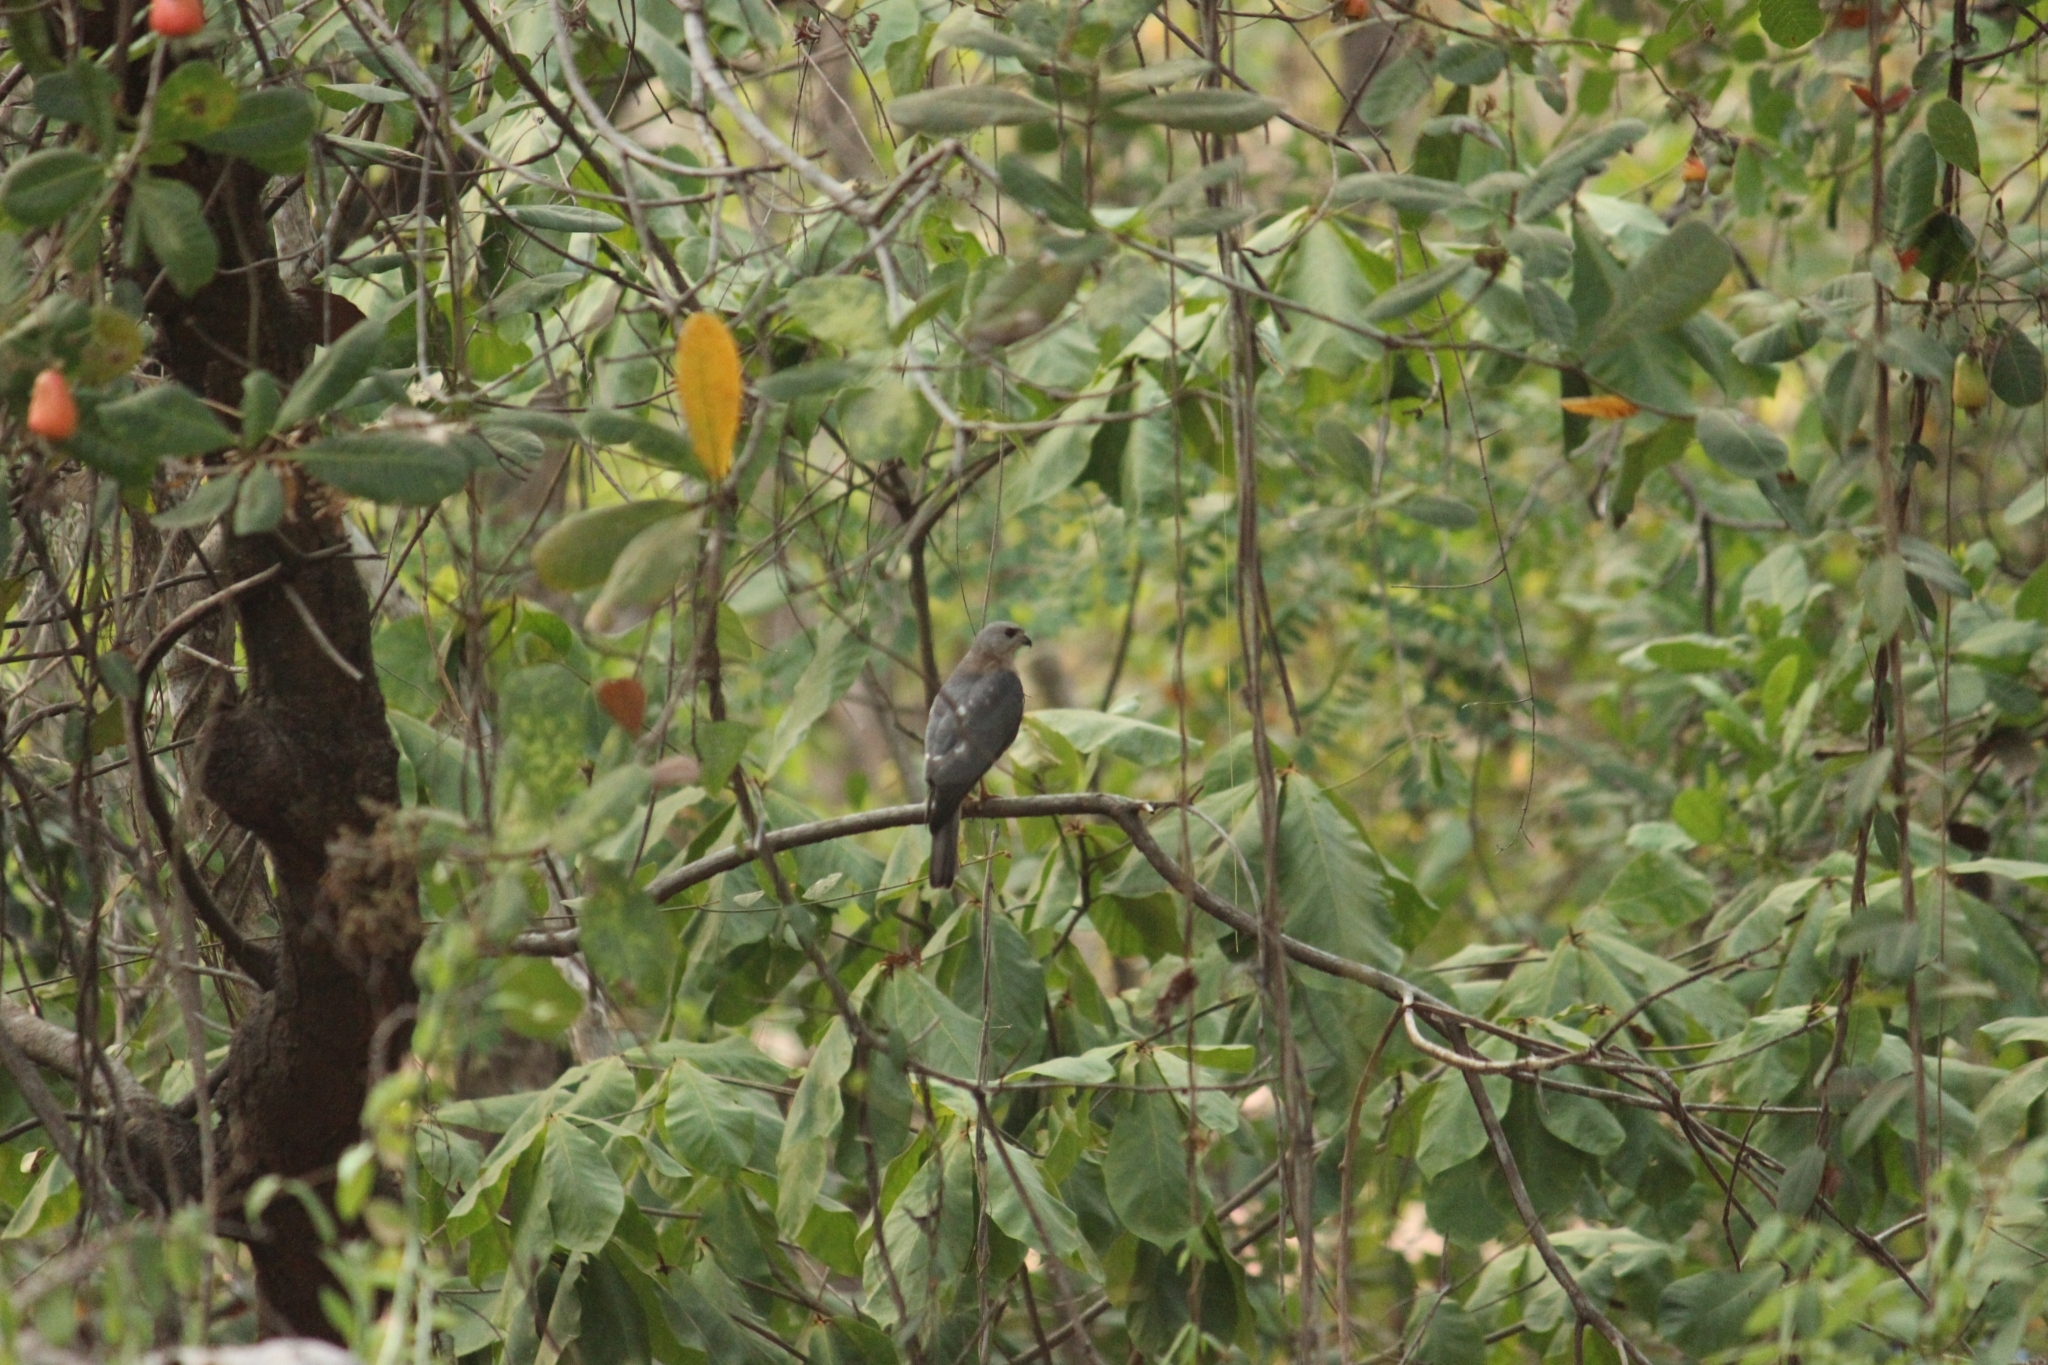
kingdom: Animalia
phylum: Chordata
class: Aves
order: Accipitriformes
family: Accipitridae
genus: Accipiter
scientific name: Accipiter badius
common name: Shikra
